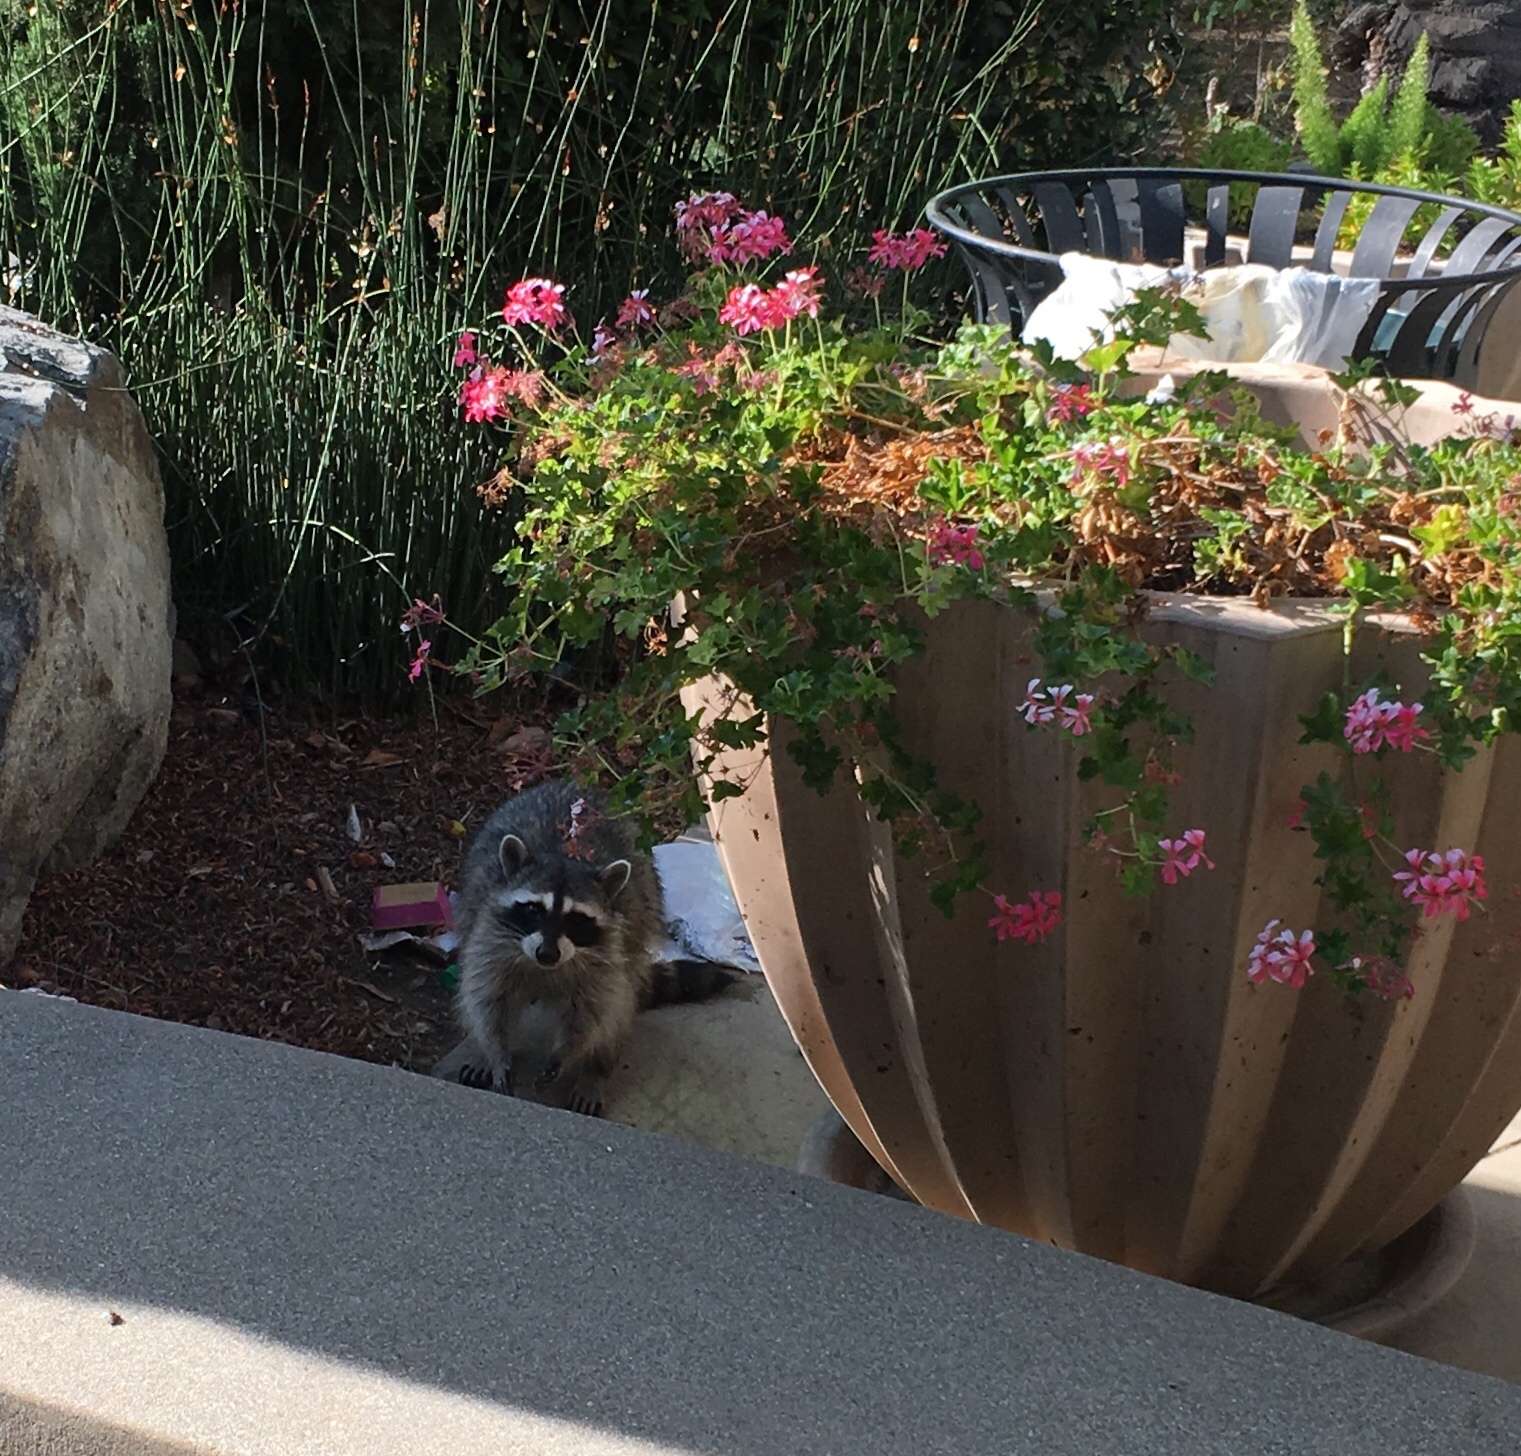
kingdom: Animalia
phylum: Chordata
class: Mammalia
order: Carnivora
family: Procyonidae
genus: Procyon
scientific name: Procyon lotor
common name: Raccoon
